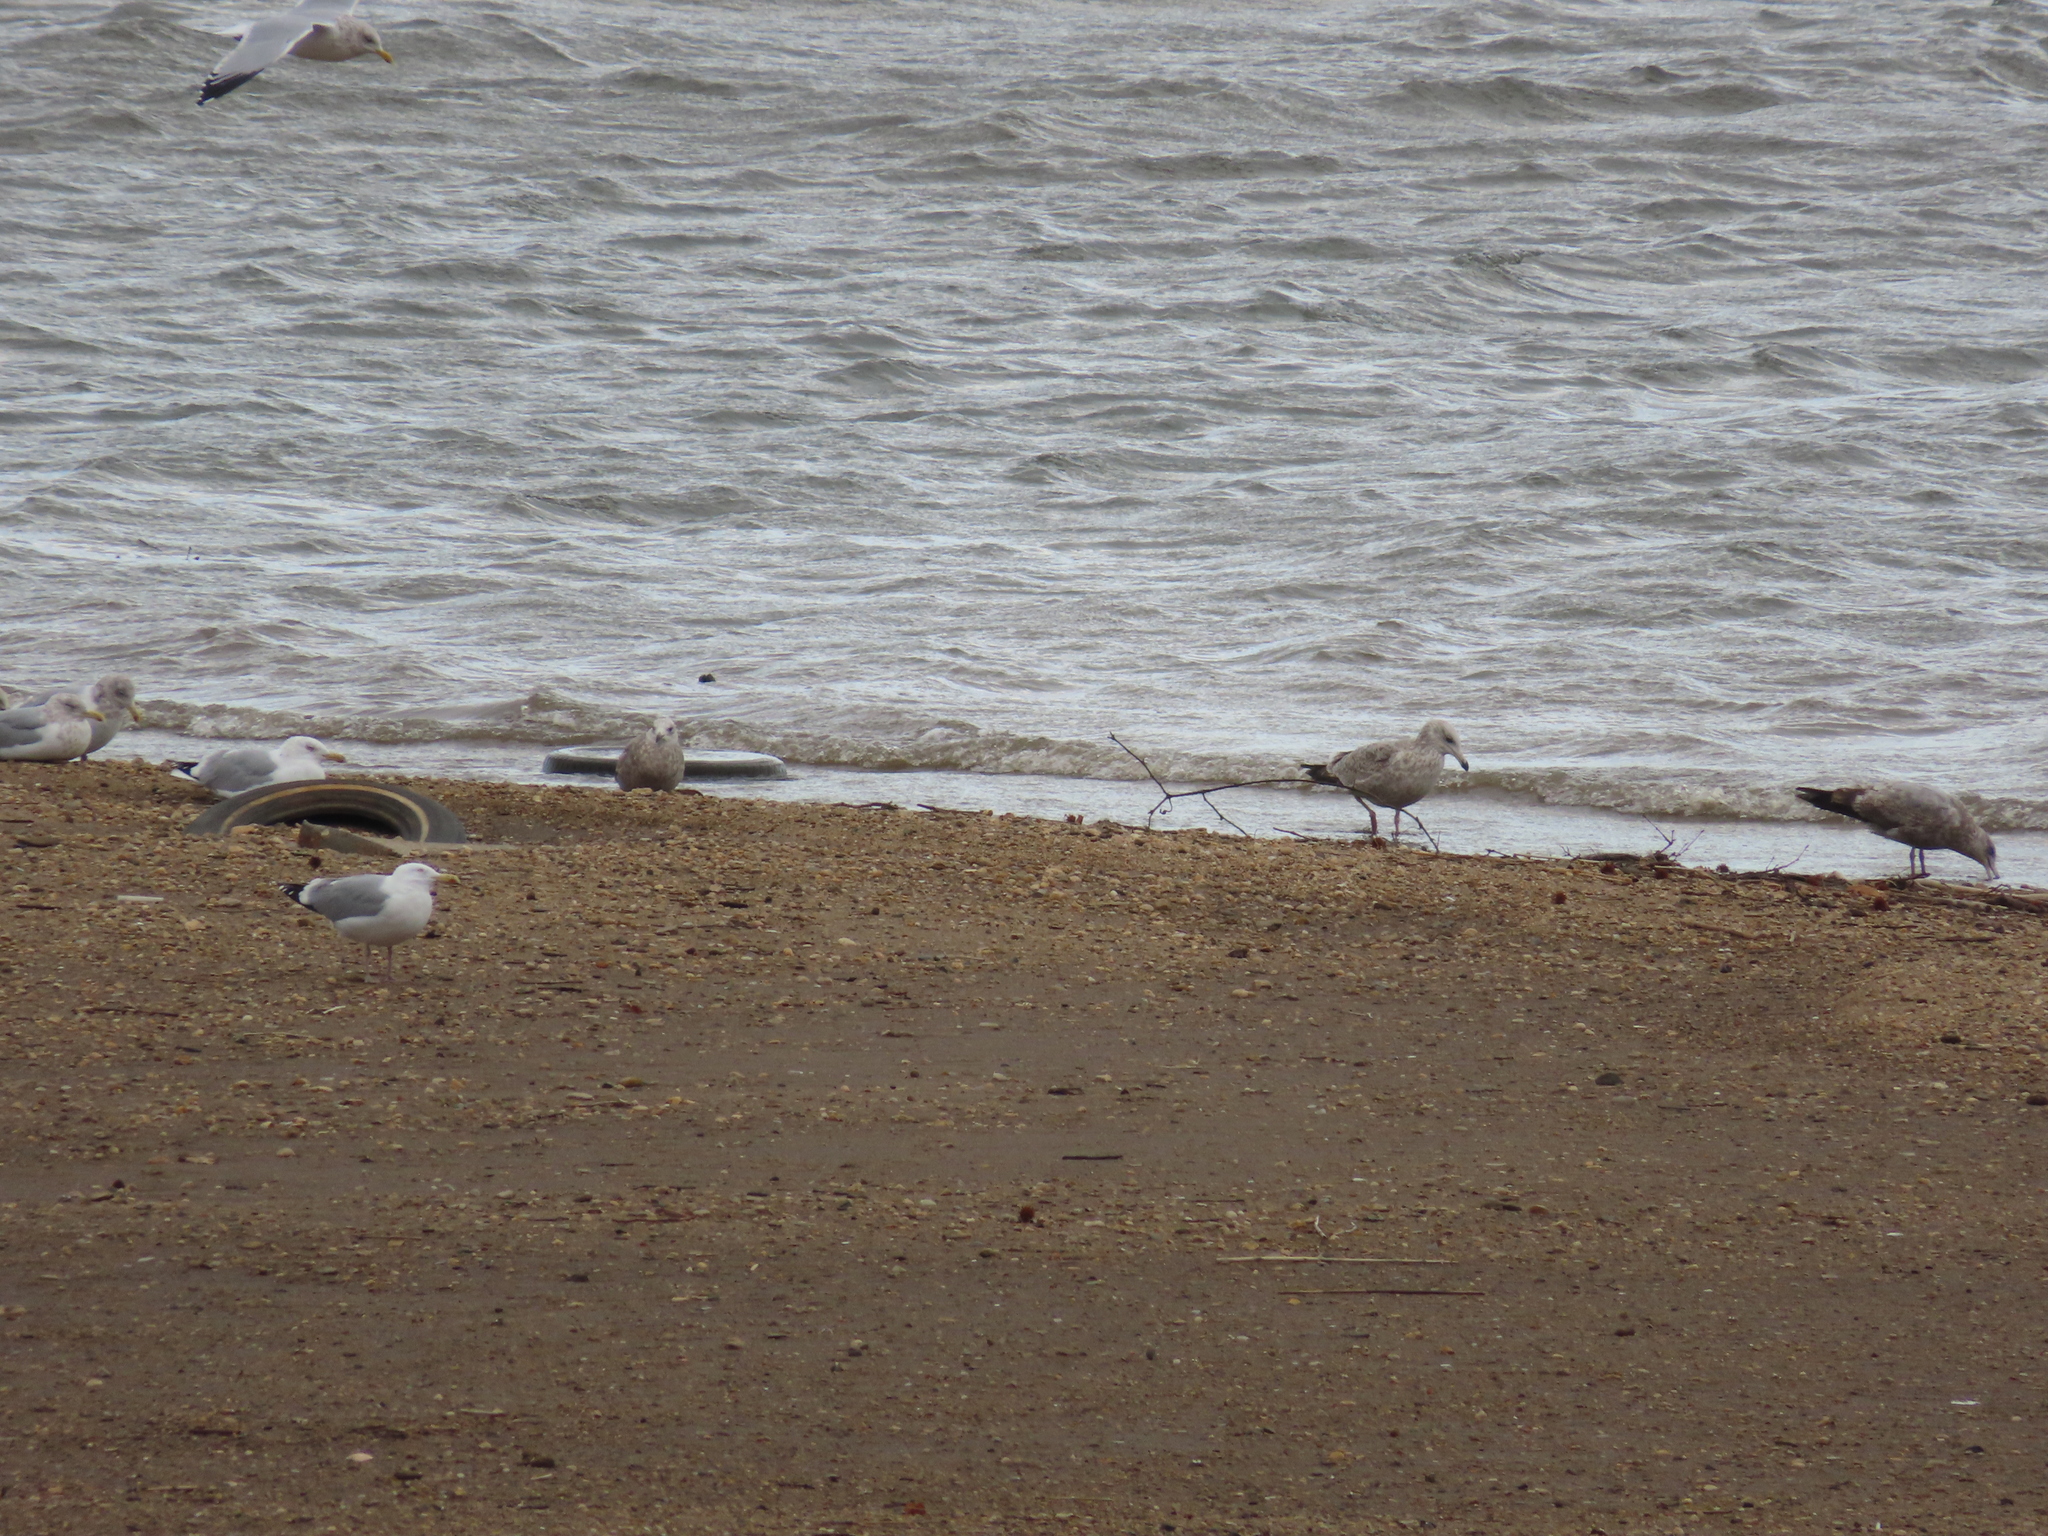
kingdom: Animalia
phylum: Chordata
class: Aves
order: Charadriiformes
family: Laridae
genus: Larus
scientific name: Larus argentatus
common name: Herring gull
